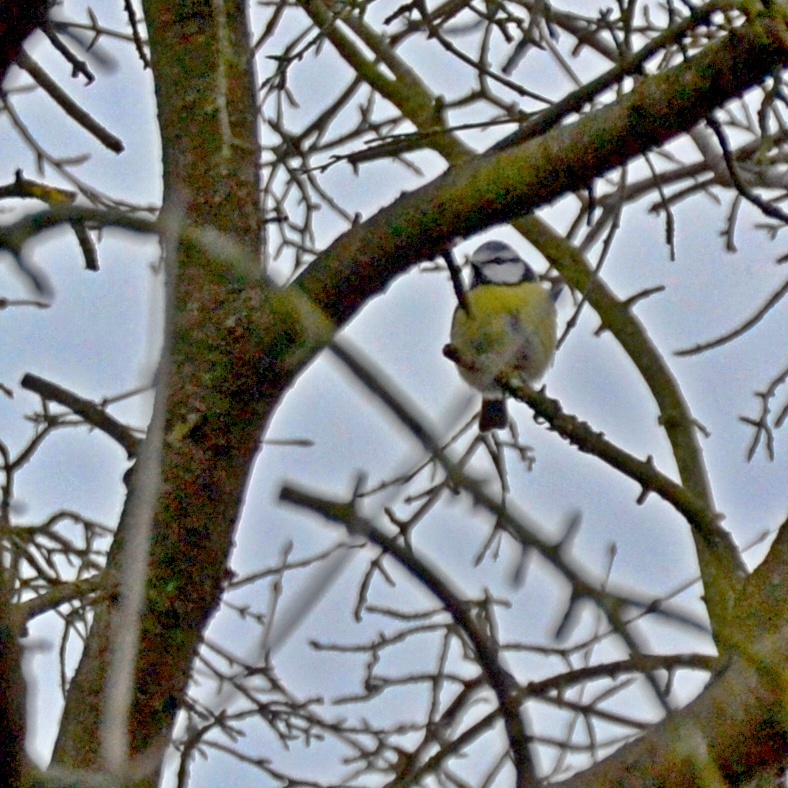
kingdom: Animalia
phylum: Chordata
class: Aves
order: Passeriformes
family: Paridae
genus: Cyanistes
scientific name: Cyanistes caeruleus
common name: Eurasian blue tit
